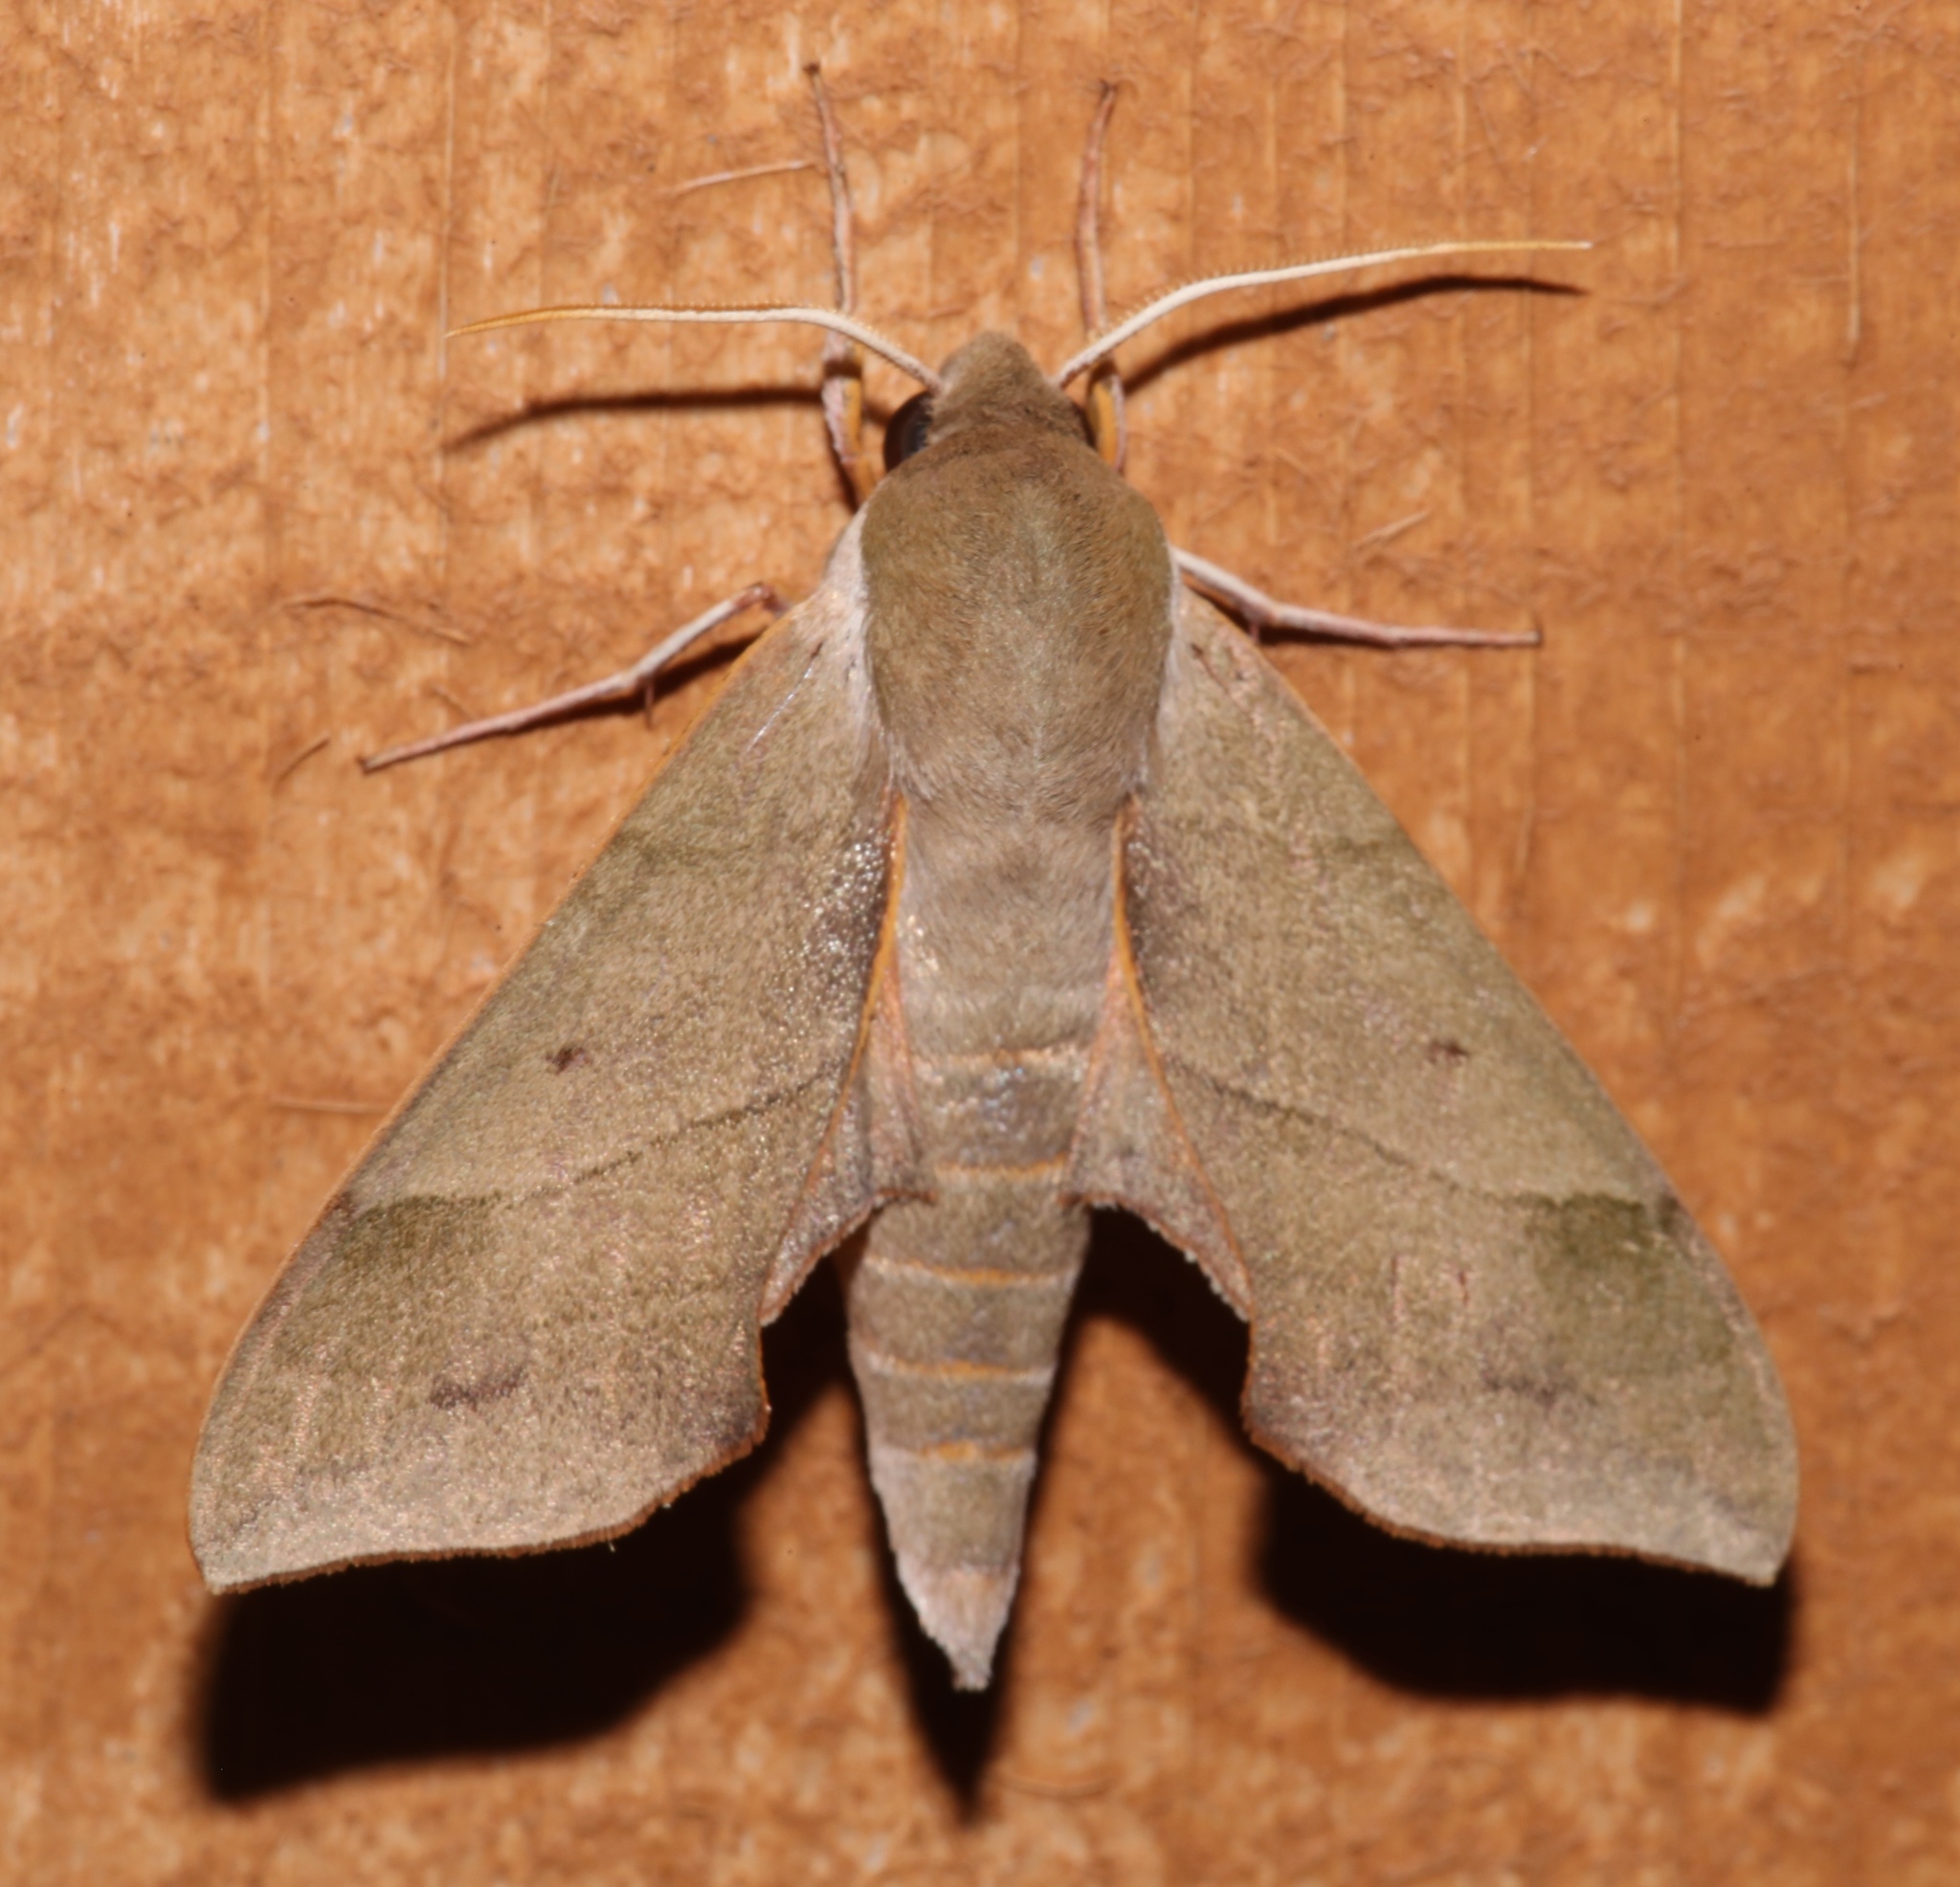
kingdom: Animalia
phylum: Arthropoda
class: Insecta
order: Lepidoptera
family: Sphingidae
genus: Darapsa
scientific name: Darapsa myron
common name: Hog sphinx
